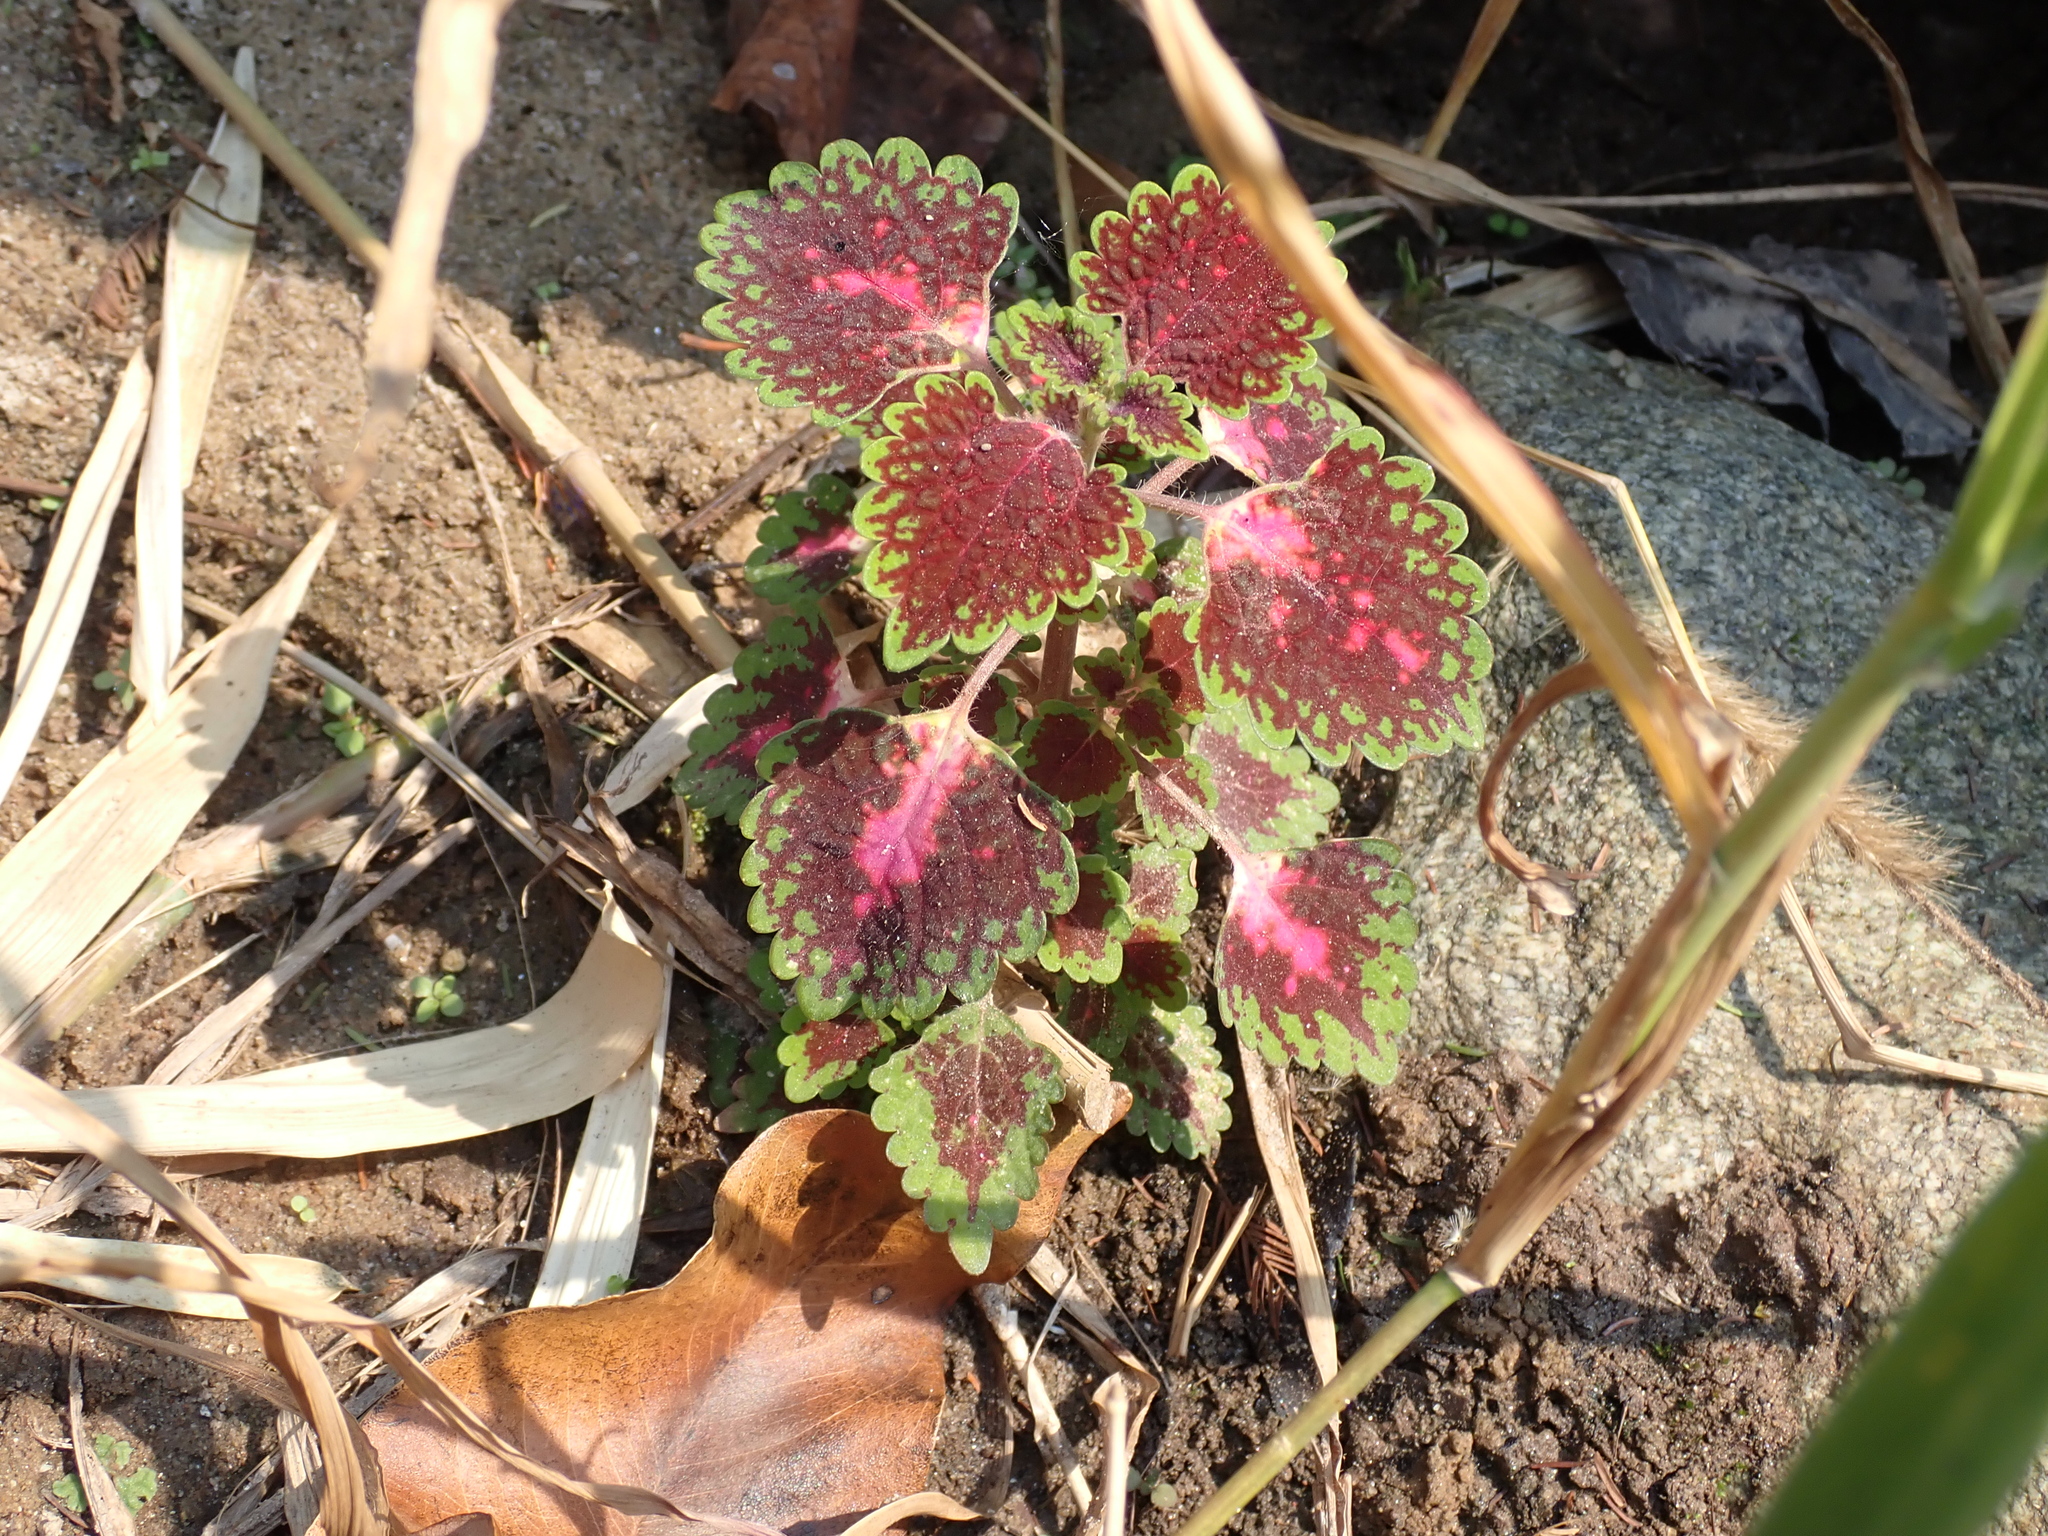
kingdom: Plantae
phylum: Tracheophyta
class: Magnoliopsida
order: Lamiales
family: Lamiaceae
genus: Coleus
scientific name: Coleus scutellarioides
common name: Coleus
